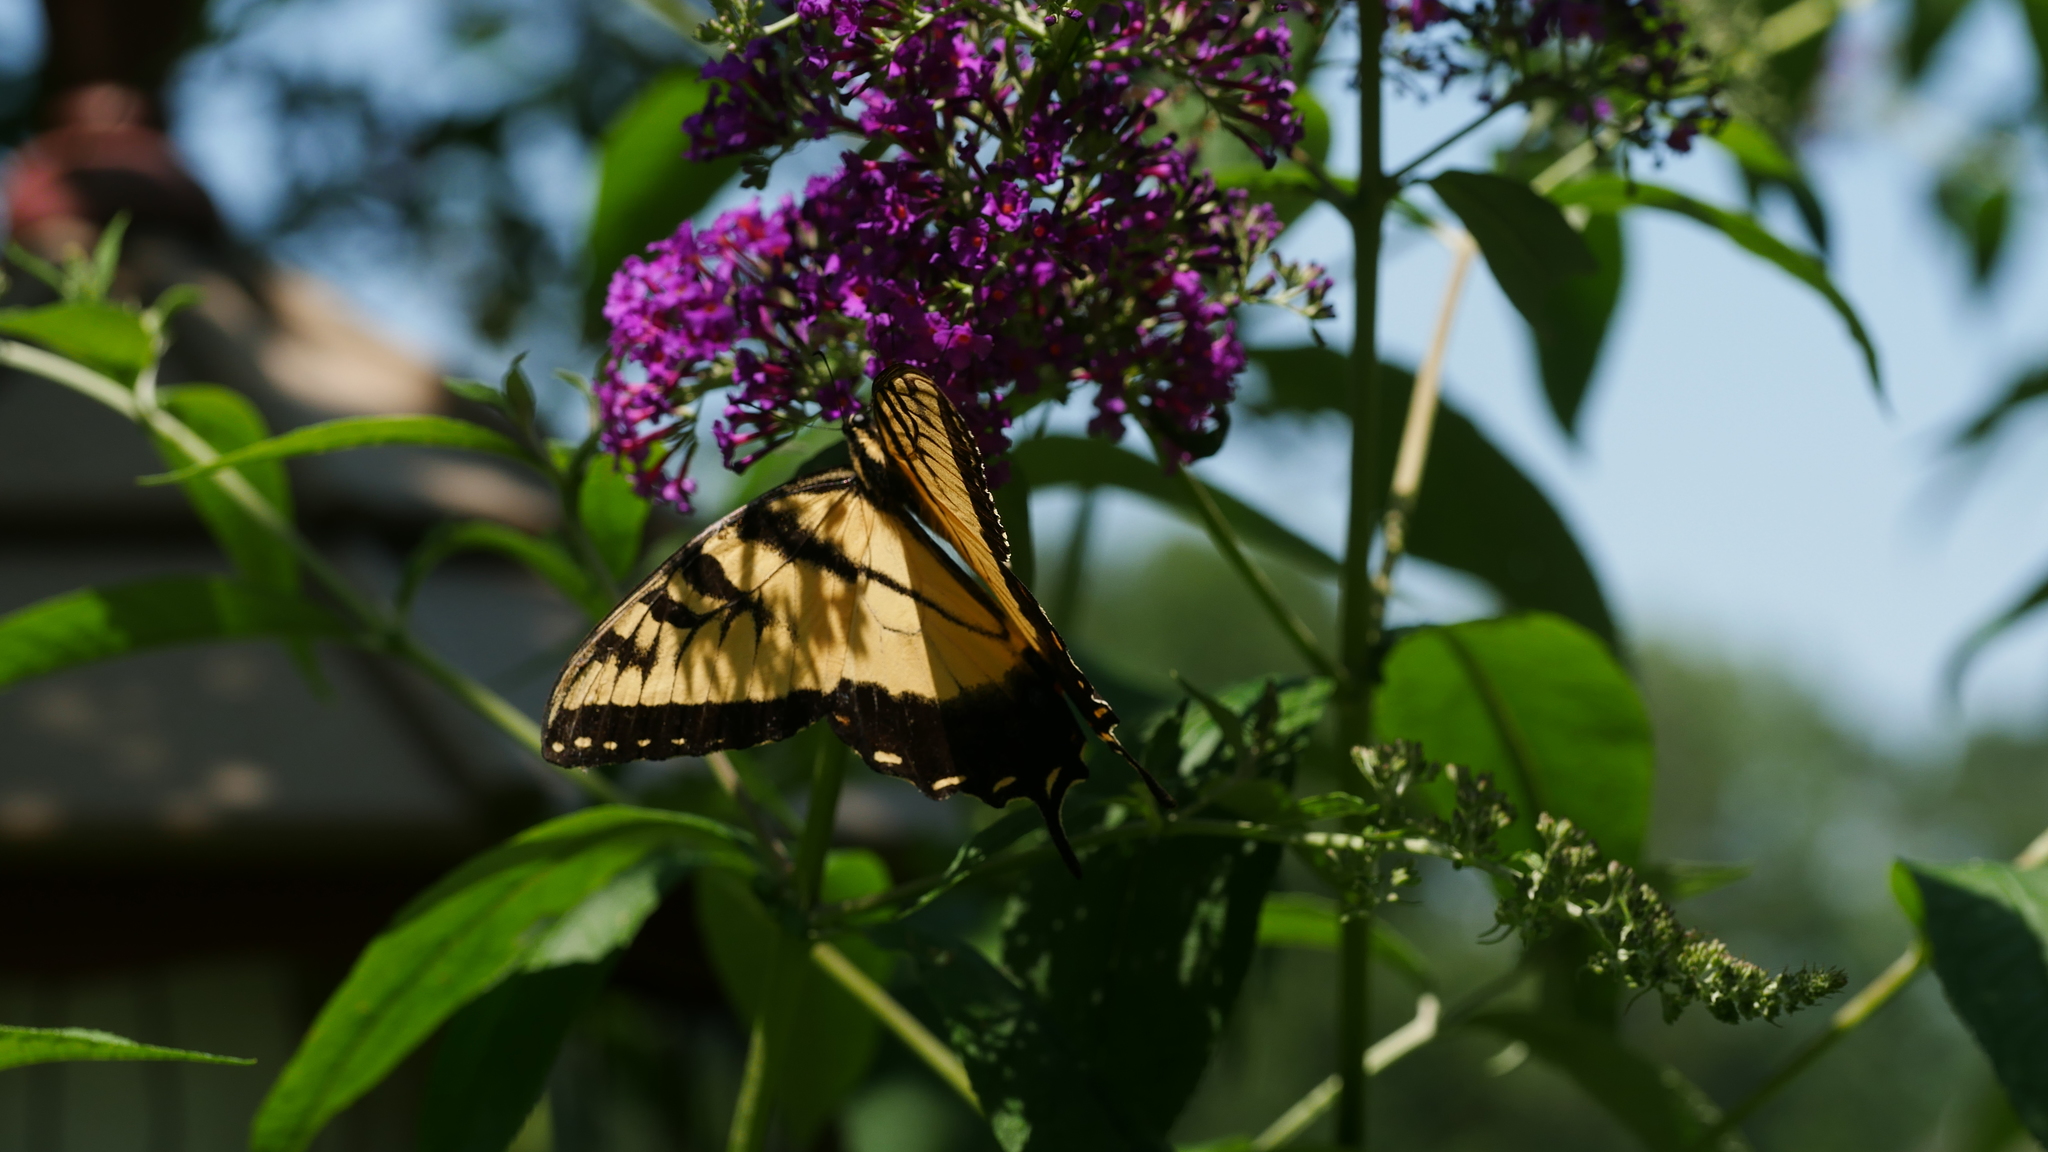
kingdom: Animalia
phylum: Arthropoda
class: Insecta
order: Lepidoptera
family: Papilionidae
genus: Papilio
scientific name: Papilio glaucus
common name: Tiger swallowtail
